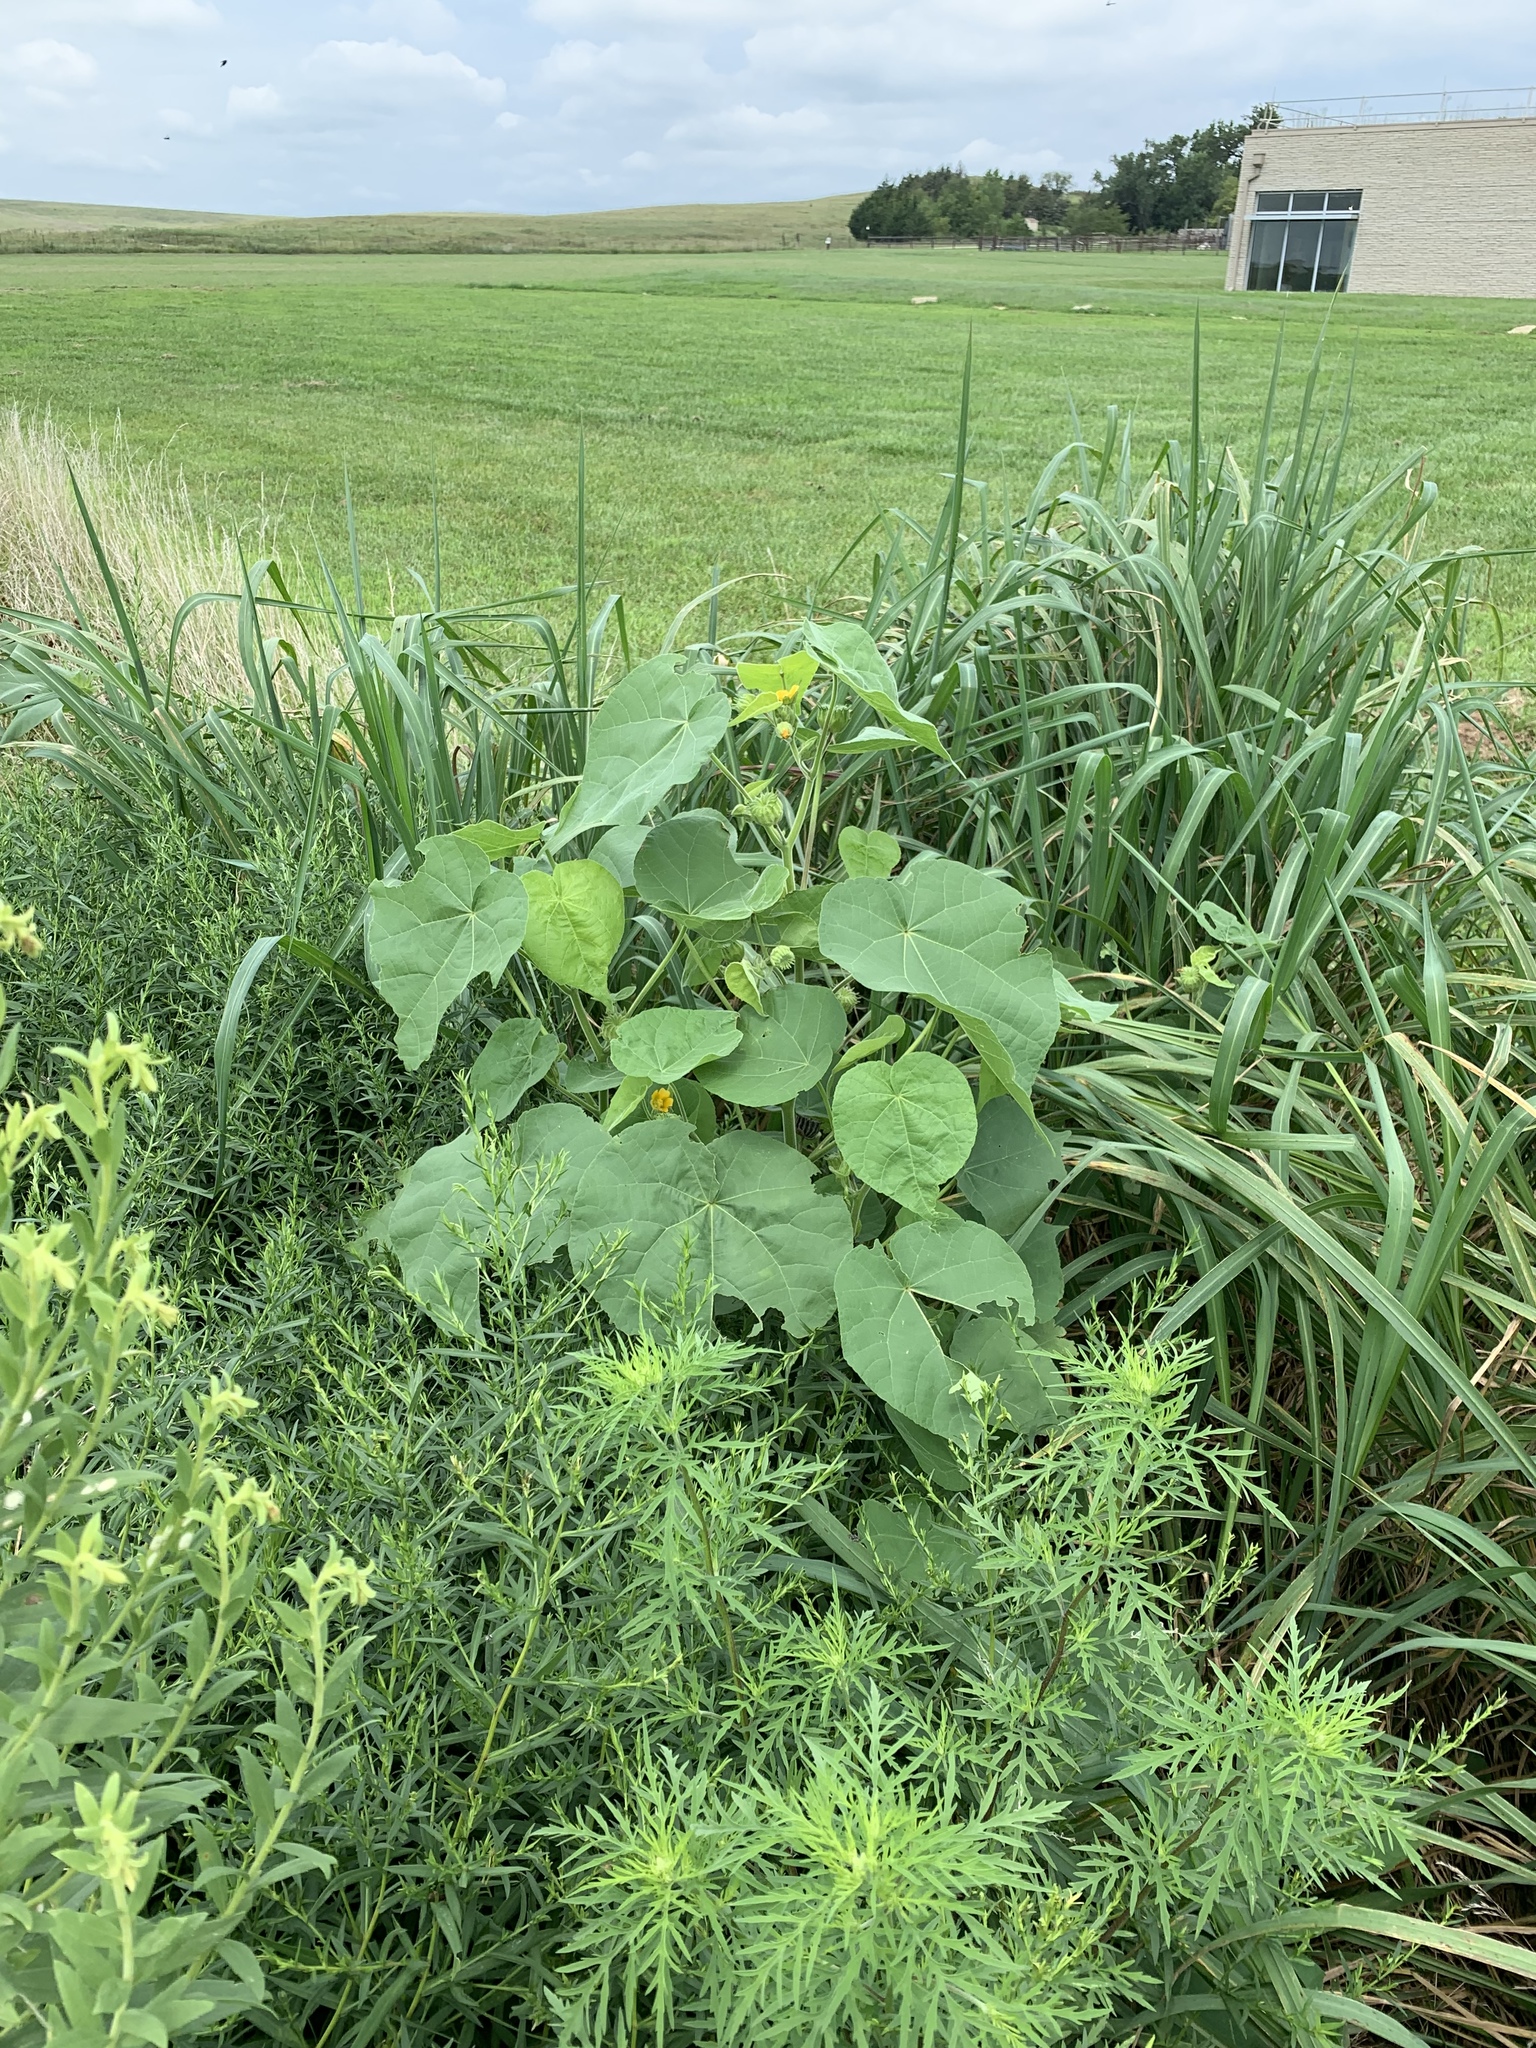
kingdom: Plantae
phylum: Tracheophyta
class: Magnoliopsida
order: Malvales
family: Malvaceae
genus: Abutilon
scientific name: Abutilon theophrasti
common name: Velvetleaf
